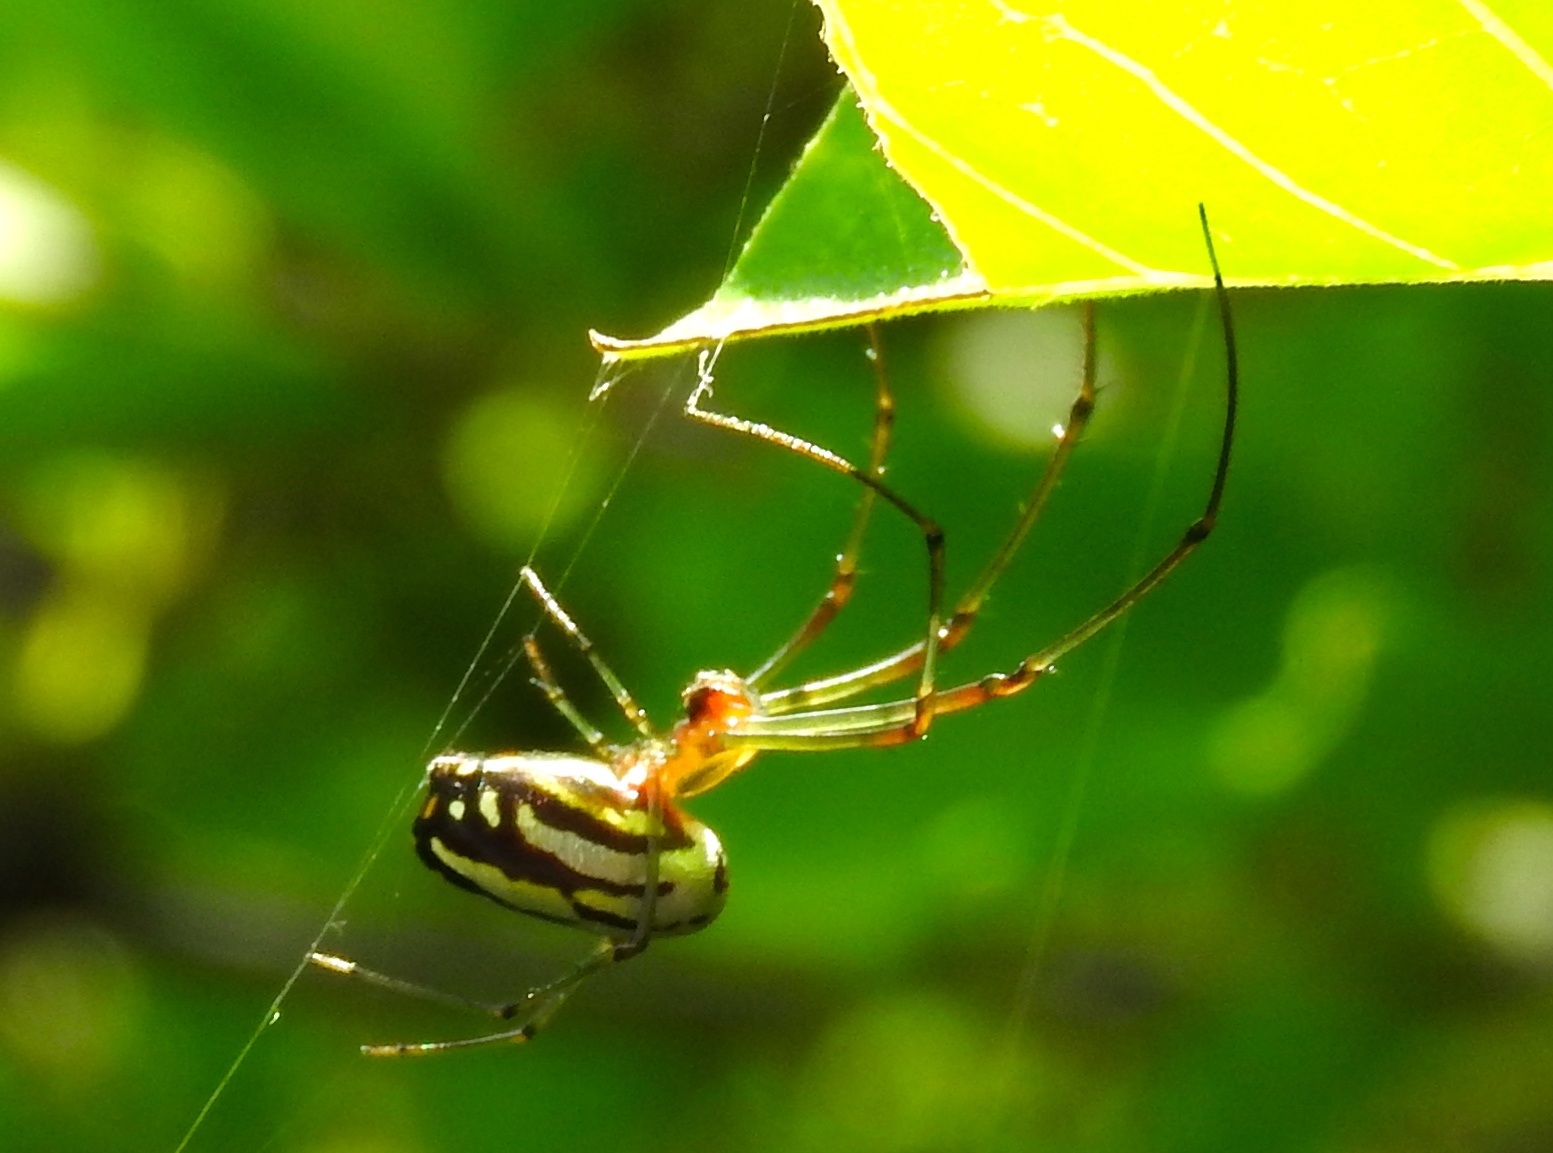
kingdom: Animalia
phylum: Arthropoda
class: Arachnida
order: Araneae
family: Tetragnathidae
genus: Leucauge
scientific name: Leucauge
